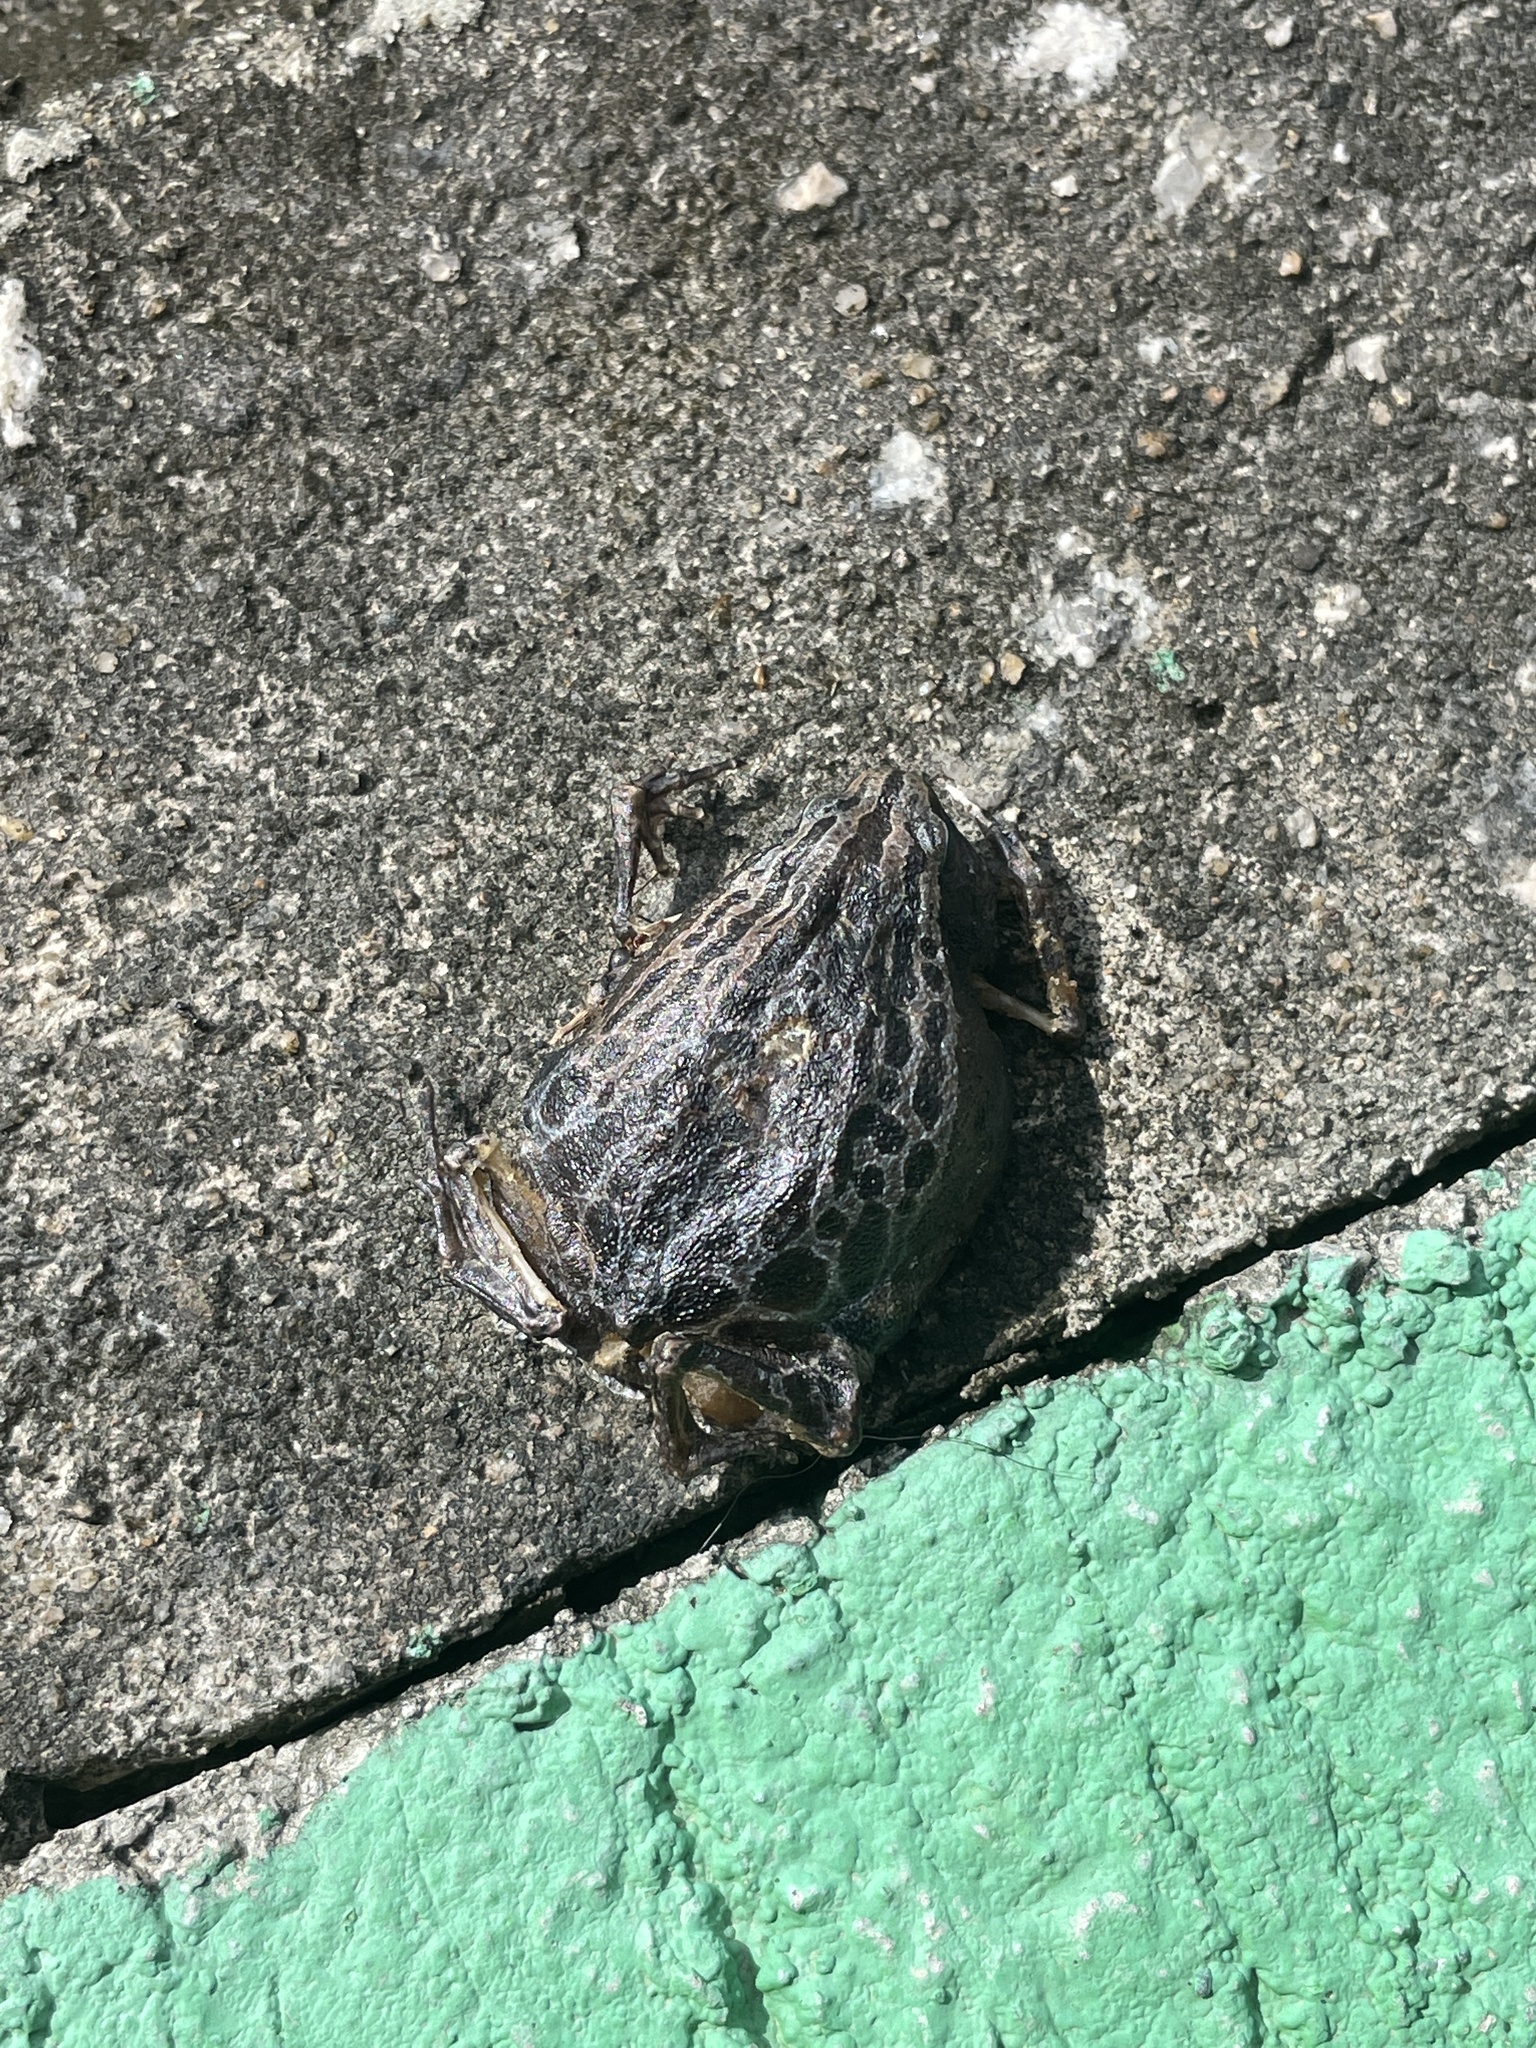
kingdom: Animalia
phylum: Chordata
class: Amphibia
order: Anura
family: Microhylidae
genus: Kalophrynus
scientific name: Kalophrynus interlineatus
